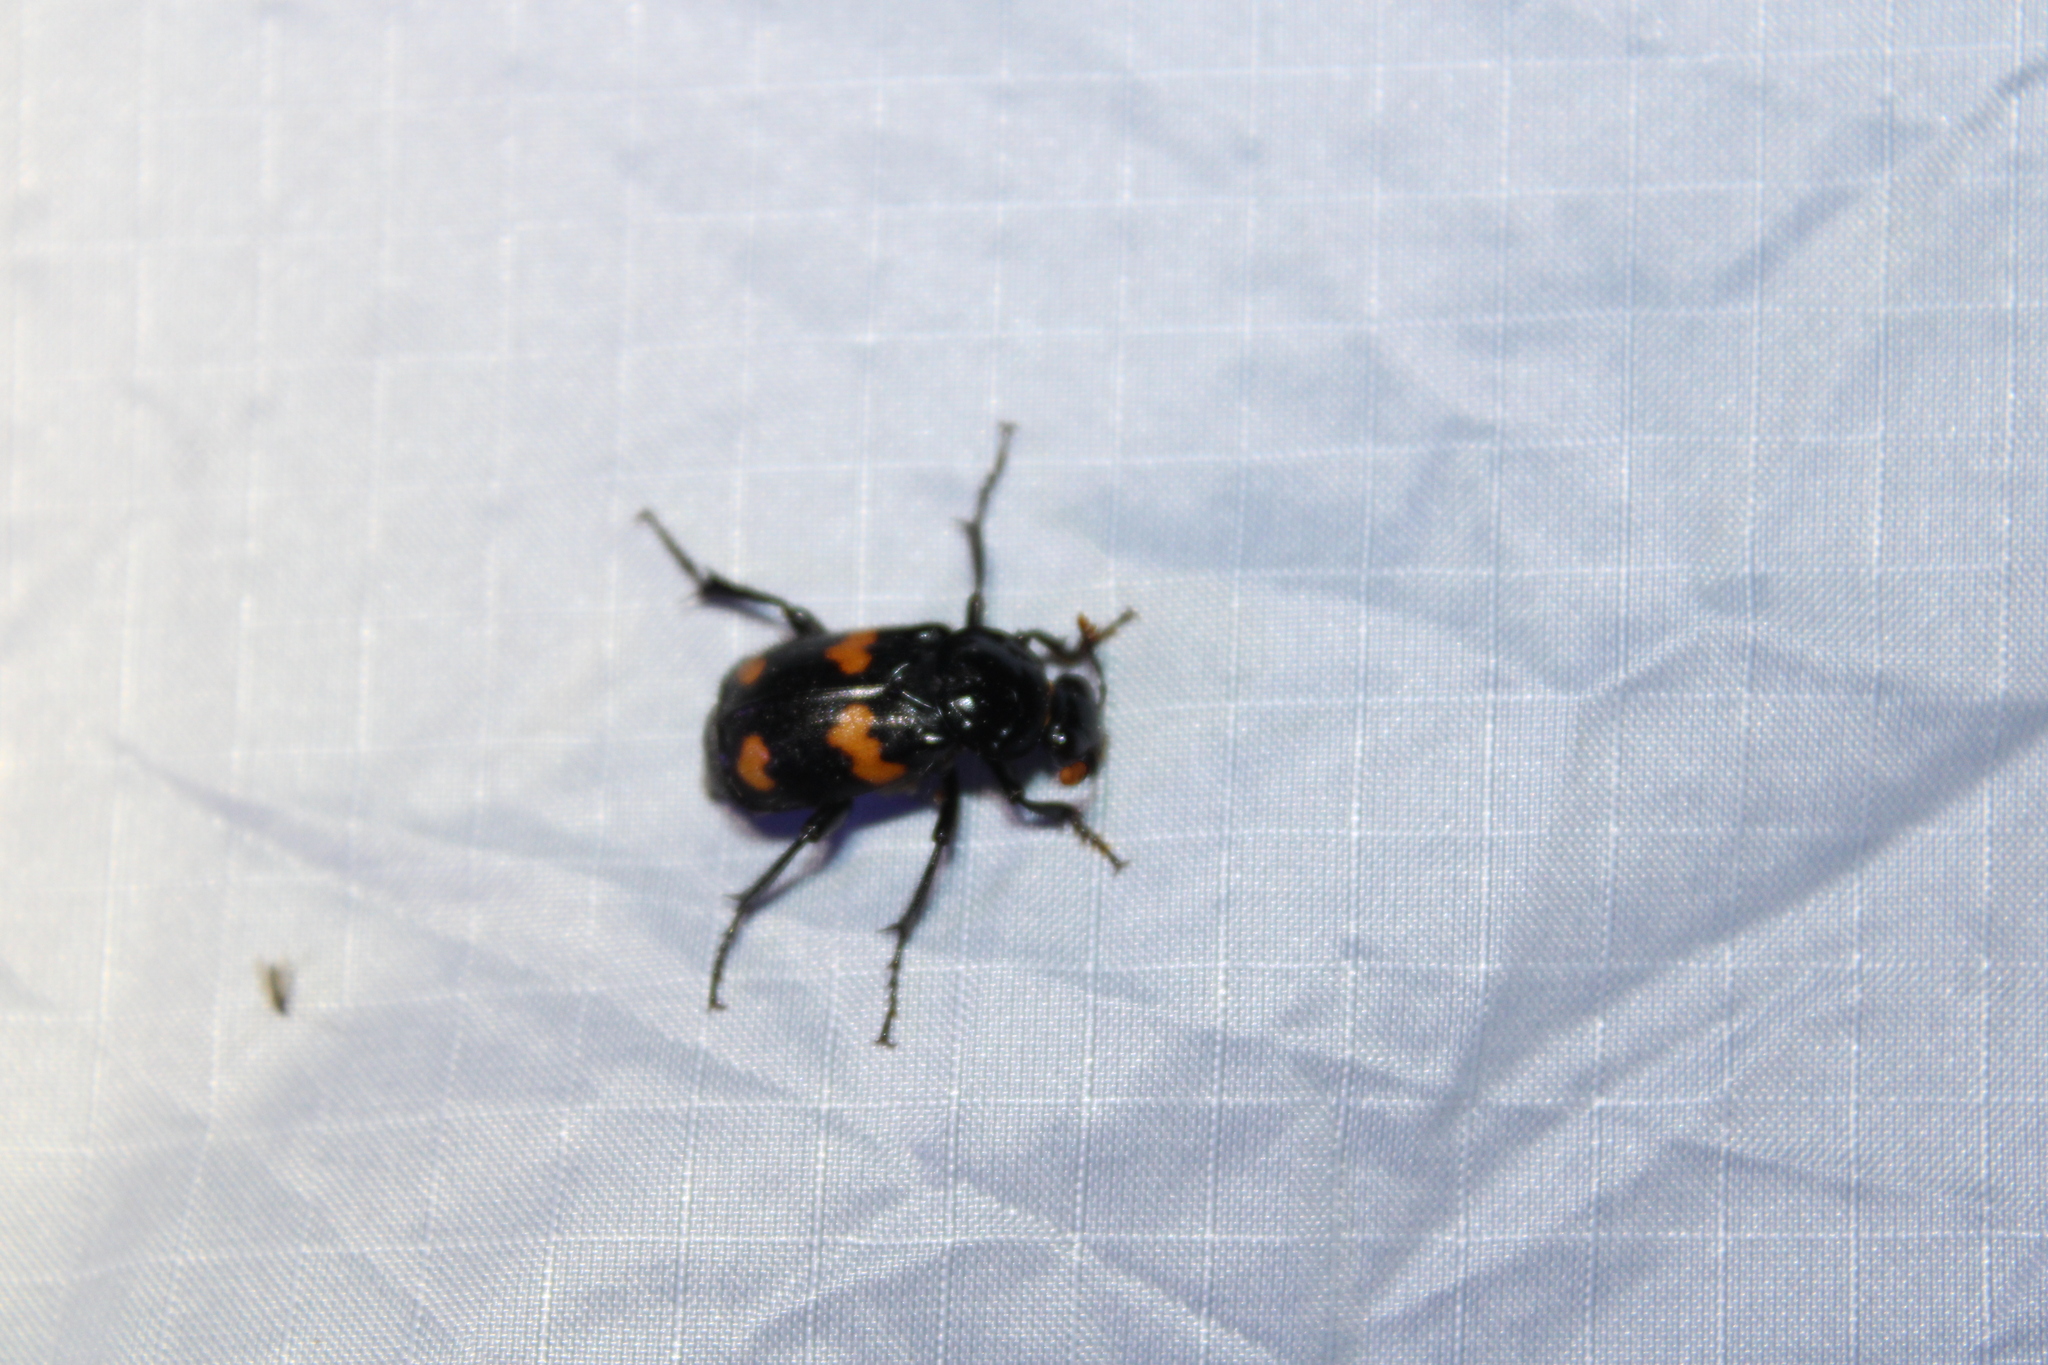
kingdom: Animalia
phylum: Arthropoda
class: Insecta
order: Coleoptera
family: Staphylinidae
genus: Nicrophorus
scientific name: Nicrophorus orbicollis
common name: Roundneck sexton beetle
